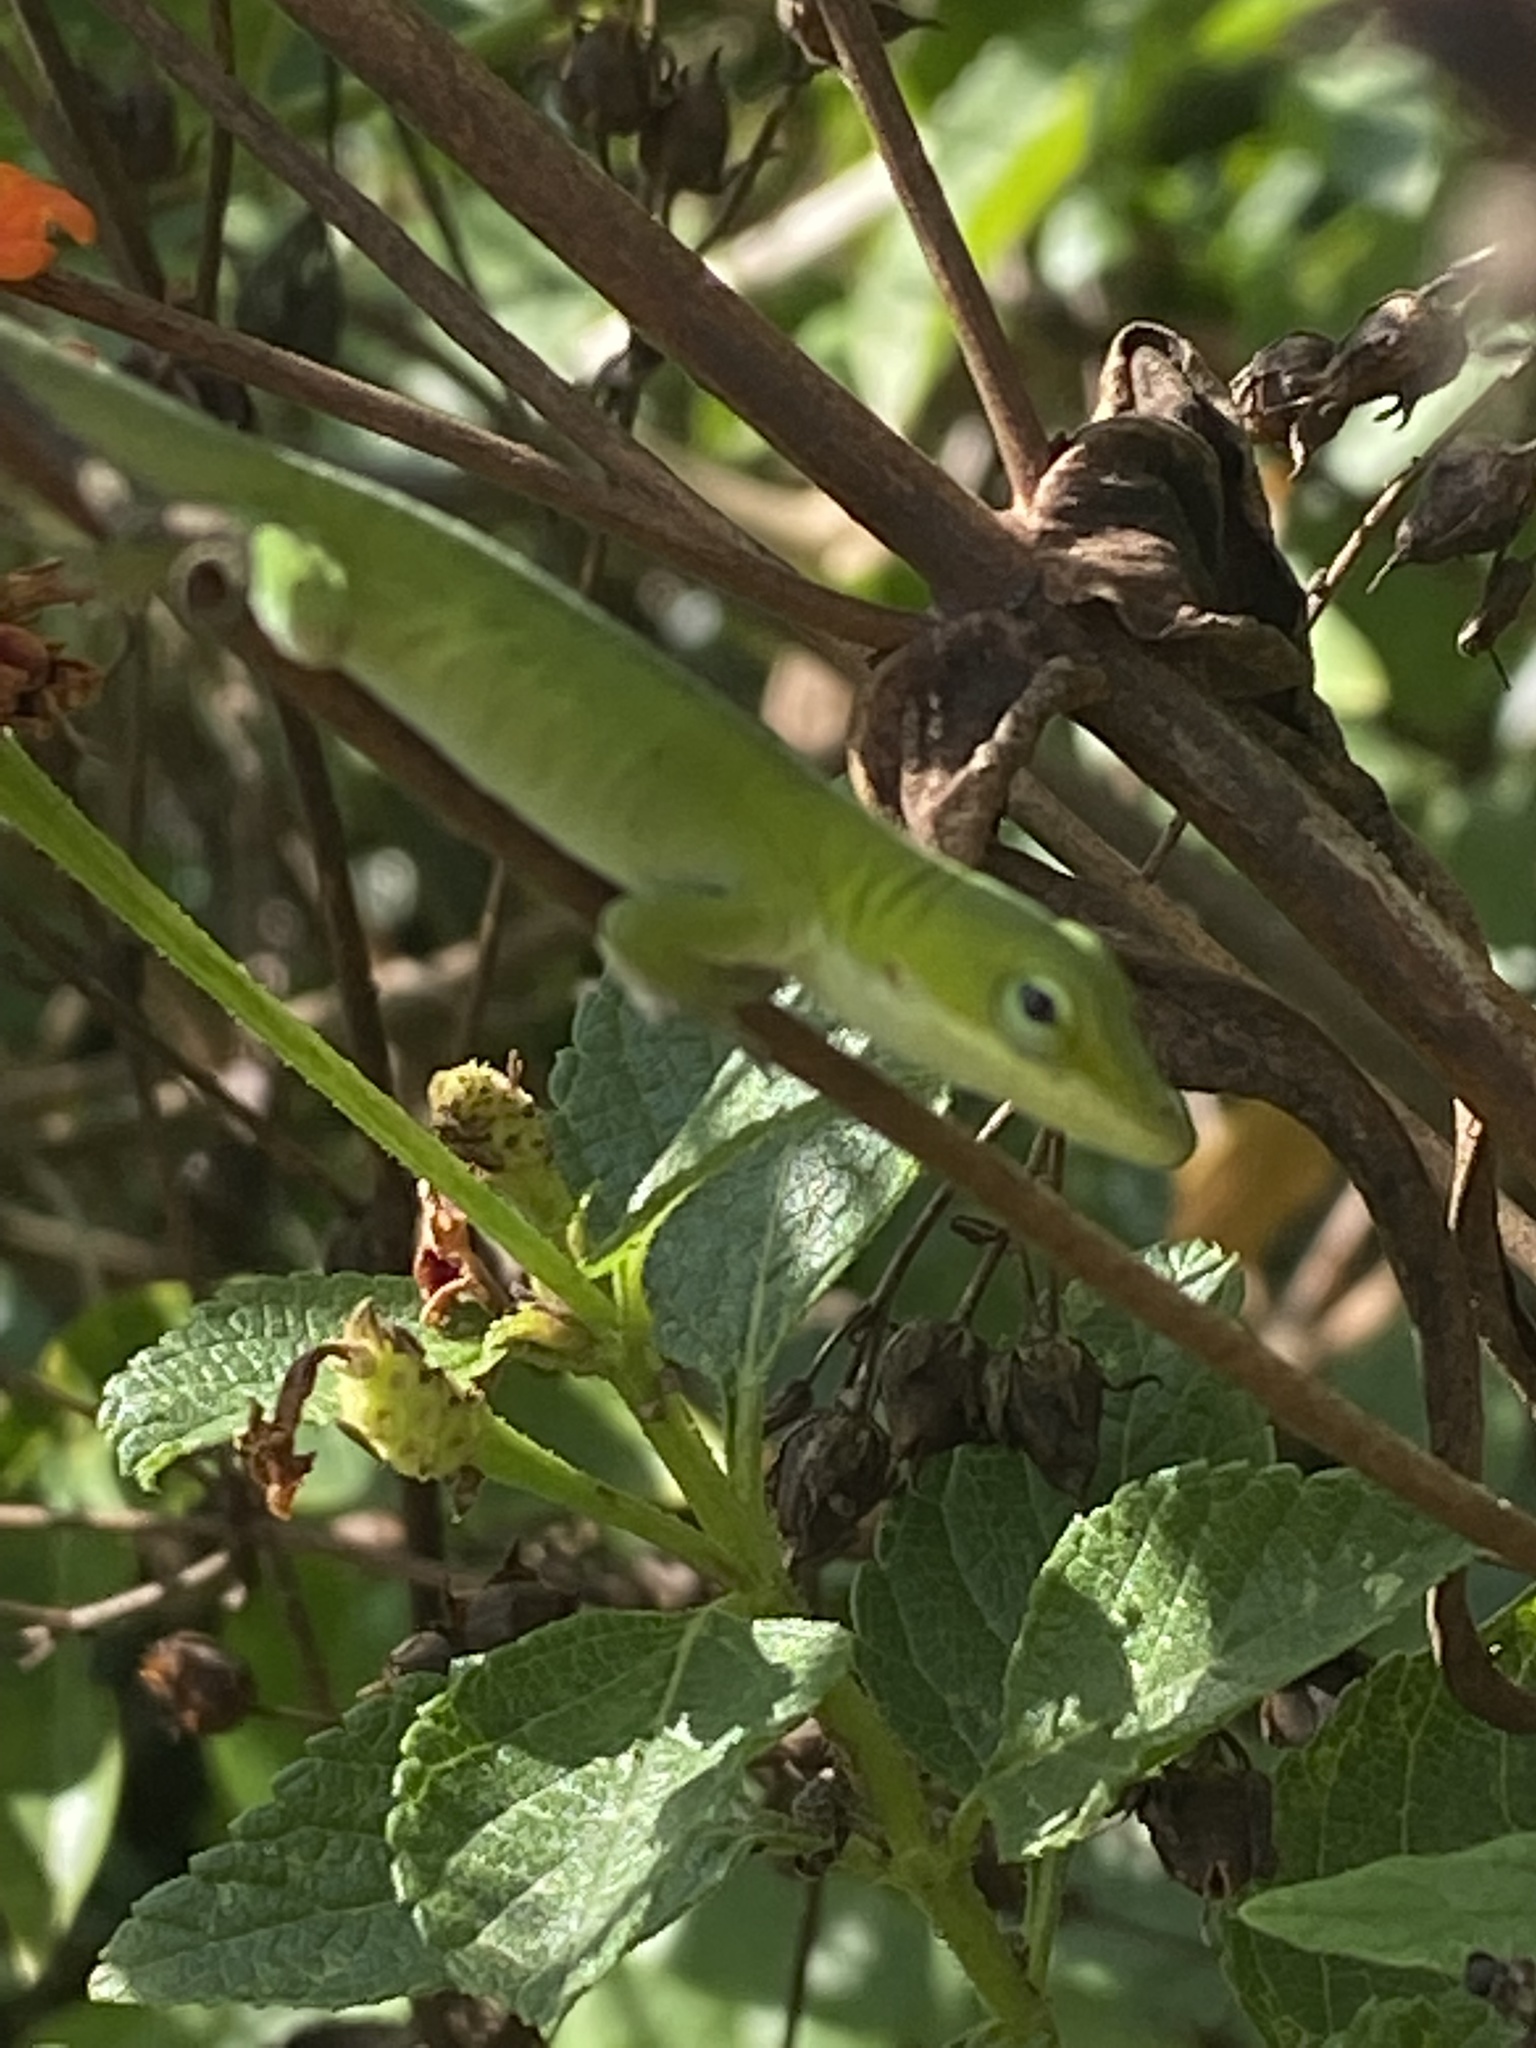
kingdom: Animalia
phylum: Chordata
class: Squamata
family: Dactyloidae
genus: Anolis
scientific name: Anolis carolinensis
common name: Green anole
